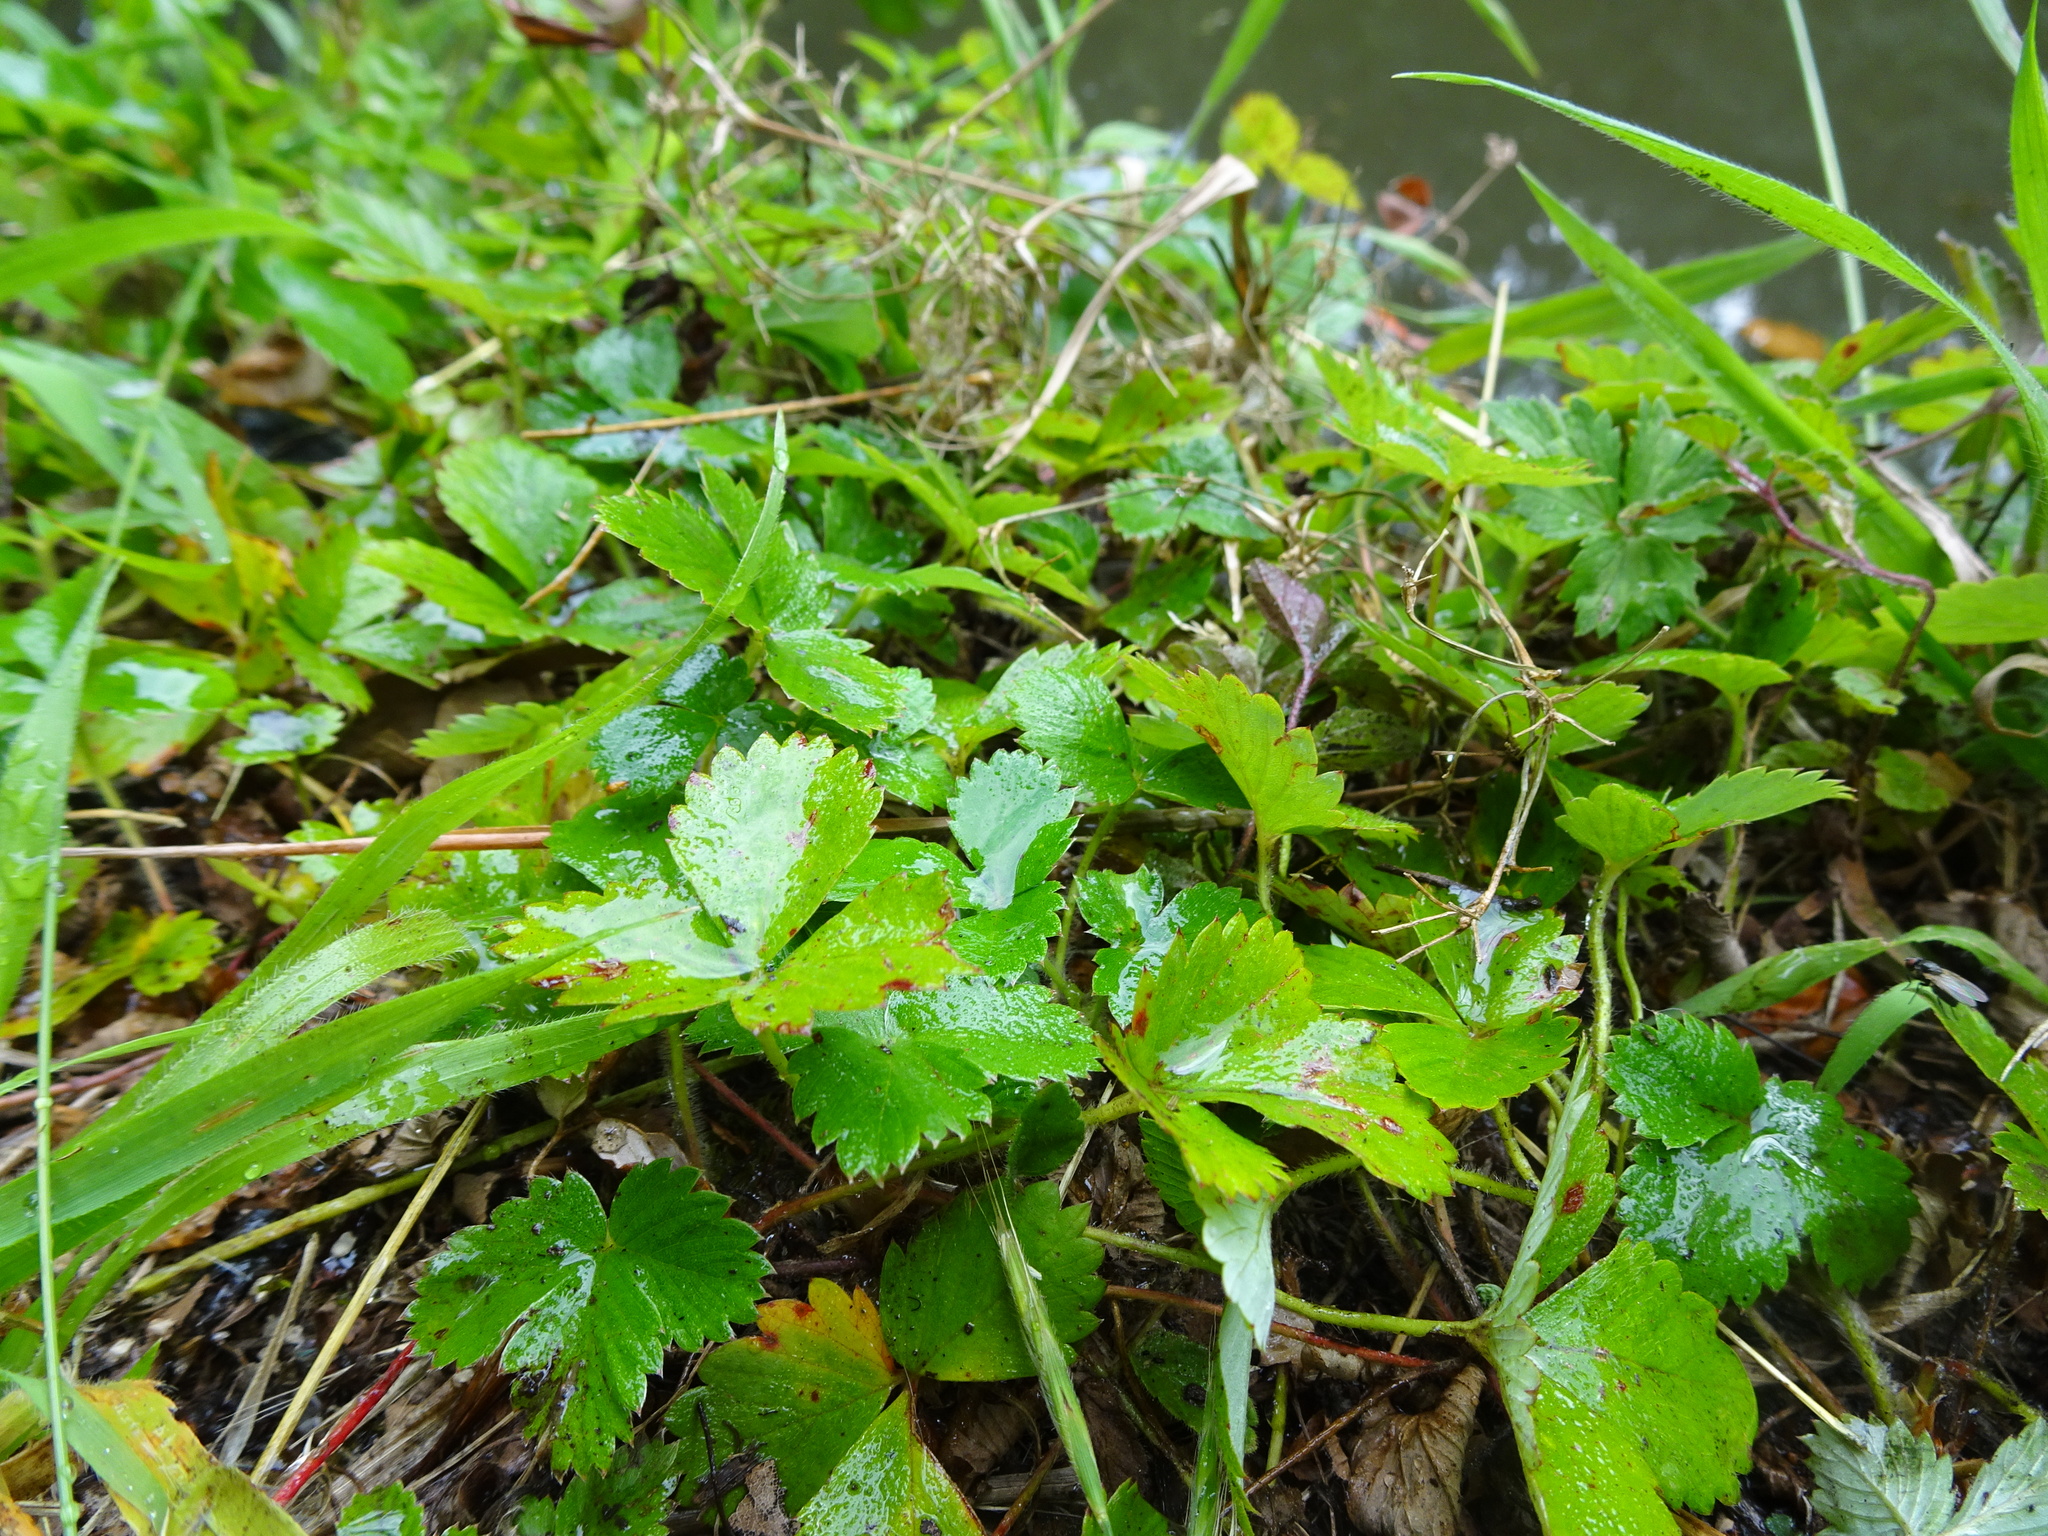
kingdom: Plantae
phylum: Tracheophyta
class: Magnoliopsida
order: Rosales
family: Rosaceae
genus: Fragaria
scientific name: Fragaria vesca
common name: Wild strawberry
